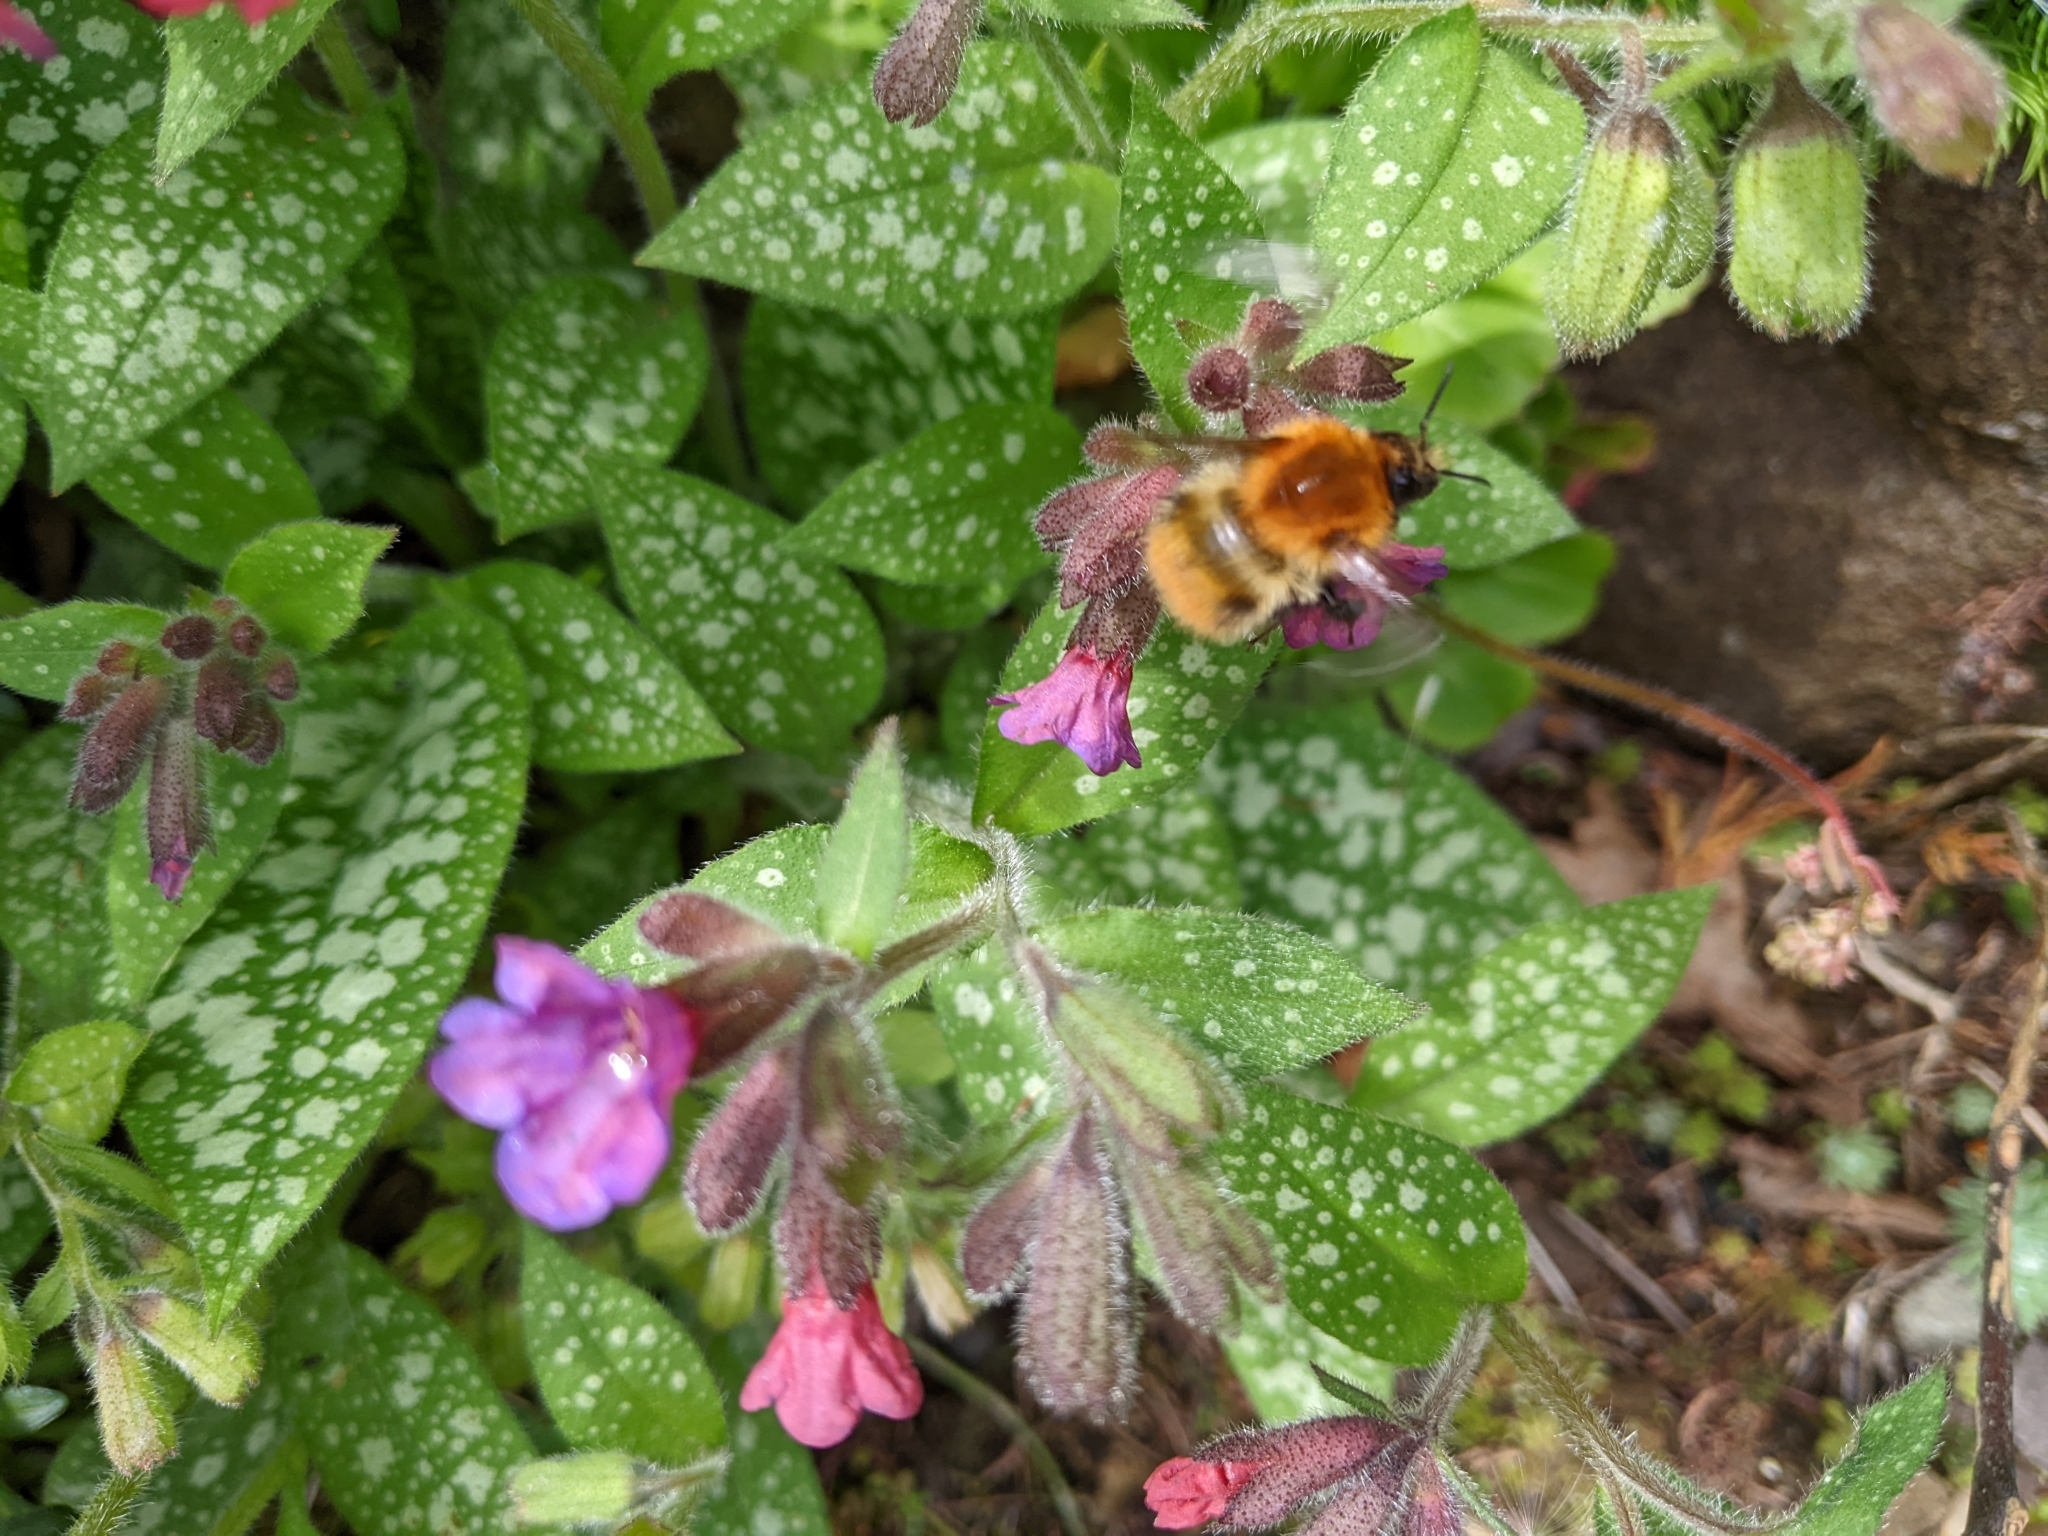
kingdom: Animalia
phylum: Arthropoda
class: Insecta
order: Hymenoptera
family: Apidae
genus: Bombus
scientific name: Bombus pascuorum
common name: Common carder bee
